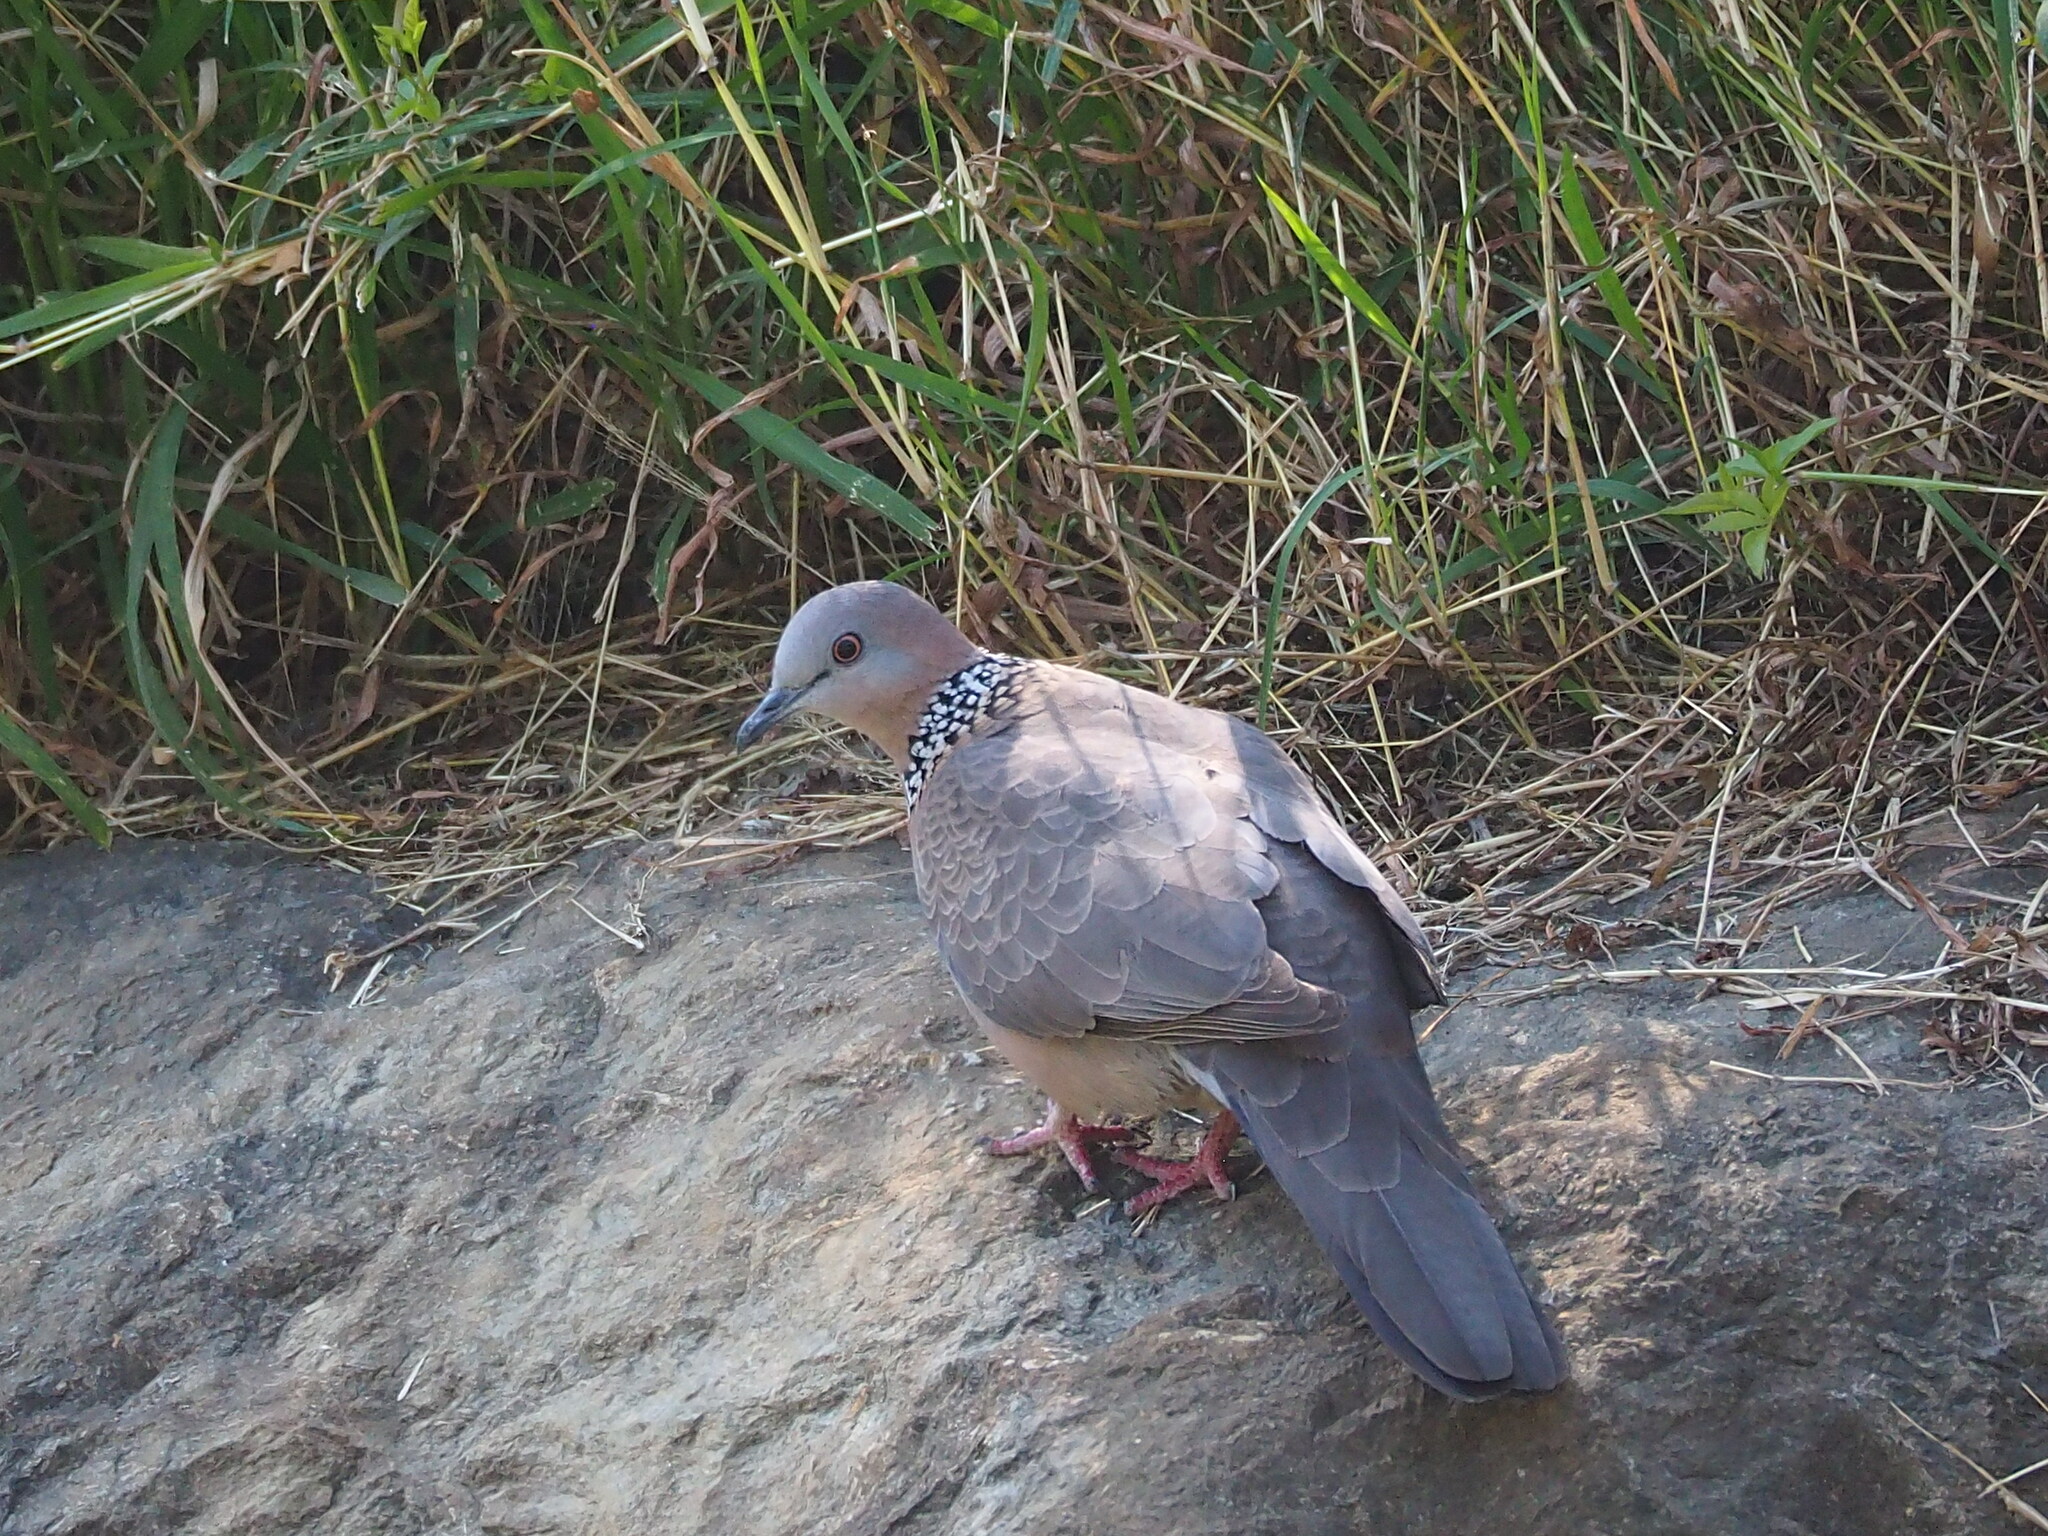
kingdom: Animalia
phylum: Chordata
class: Aves
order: Columbiformes
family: Columbidae
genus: Spilopelia
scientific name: Spilopelia chinensis
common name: Spotted dove
